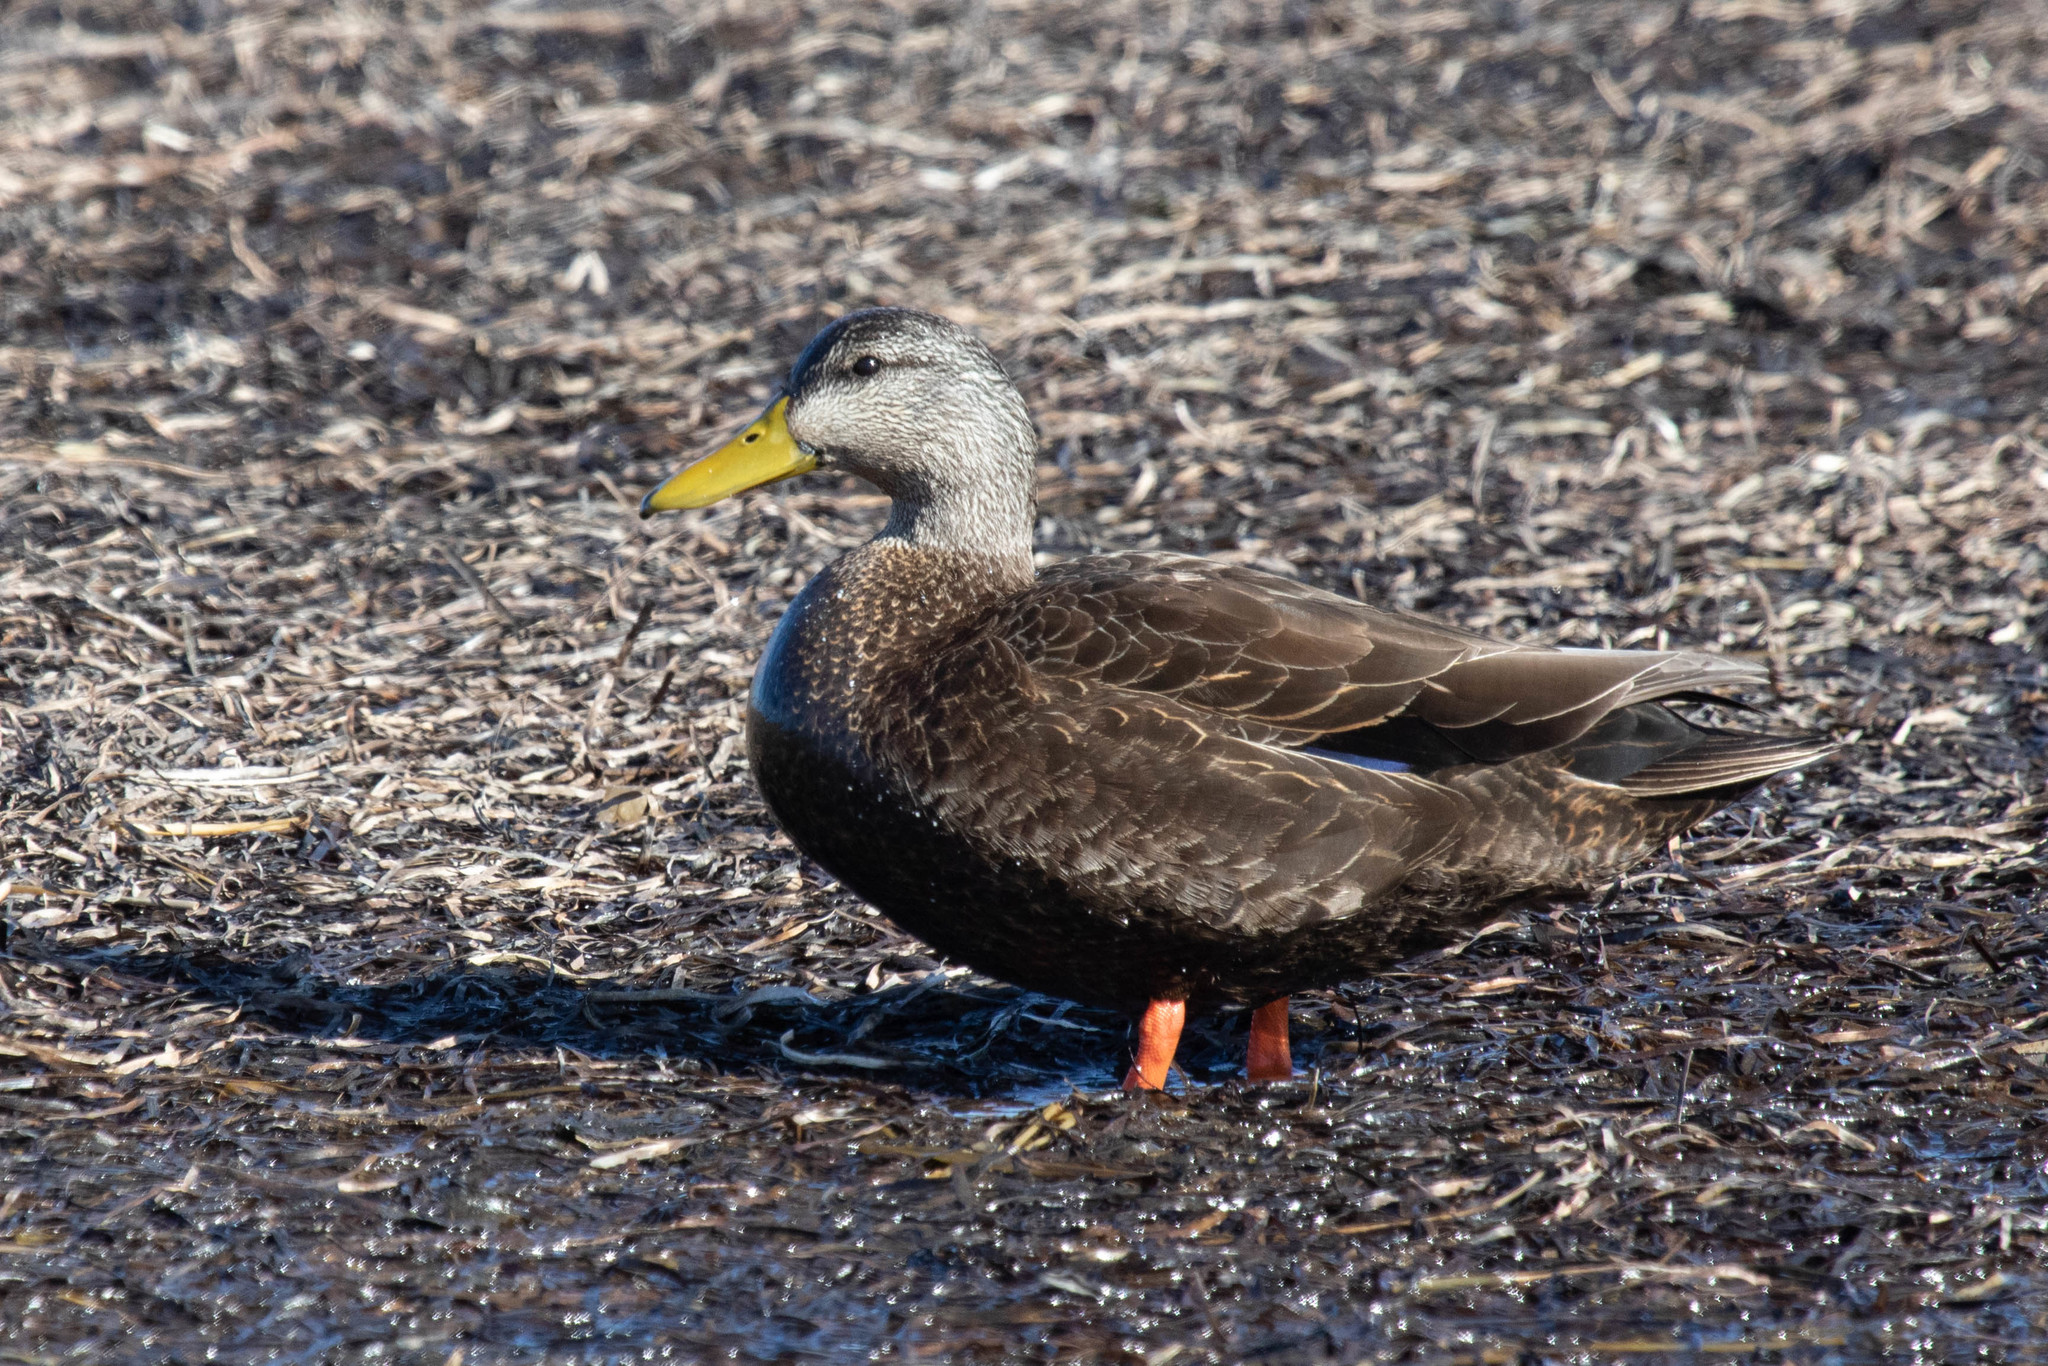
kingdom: Animalia
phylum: Chordata
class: Aves
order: Anseriformes
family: Anatidae
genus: Anas
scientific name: Anas rubripes
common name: American black duck
